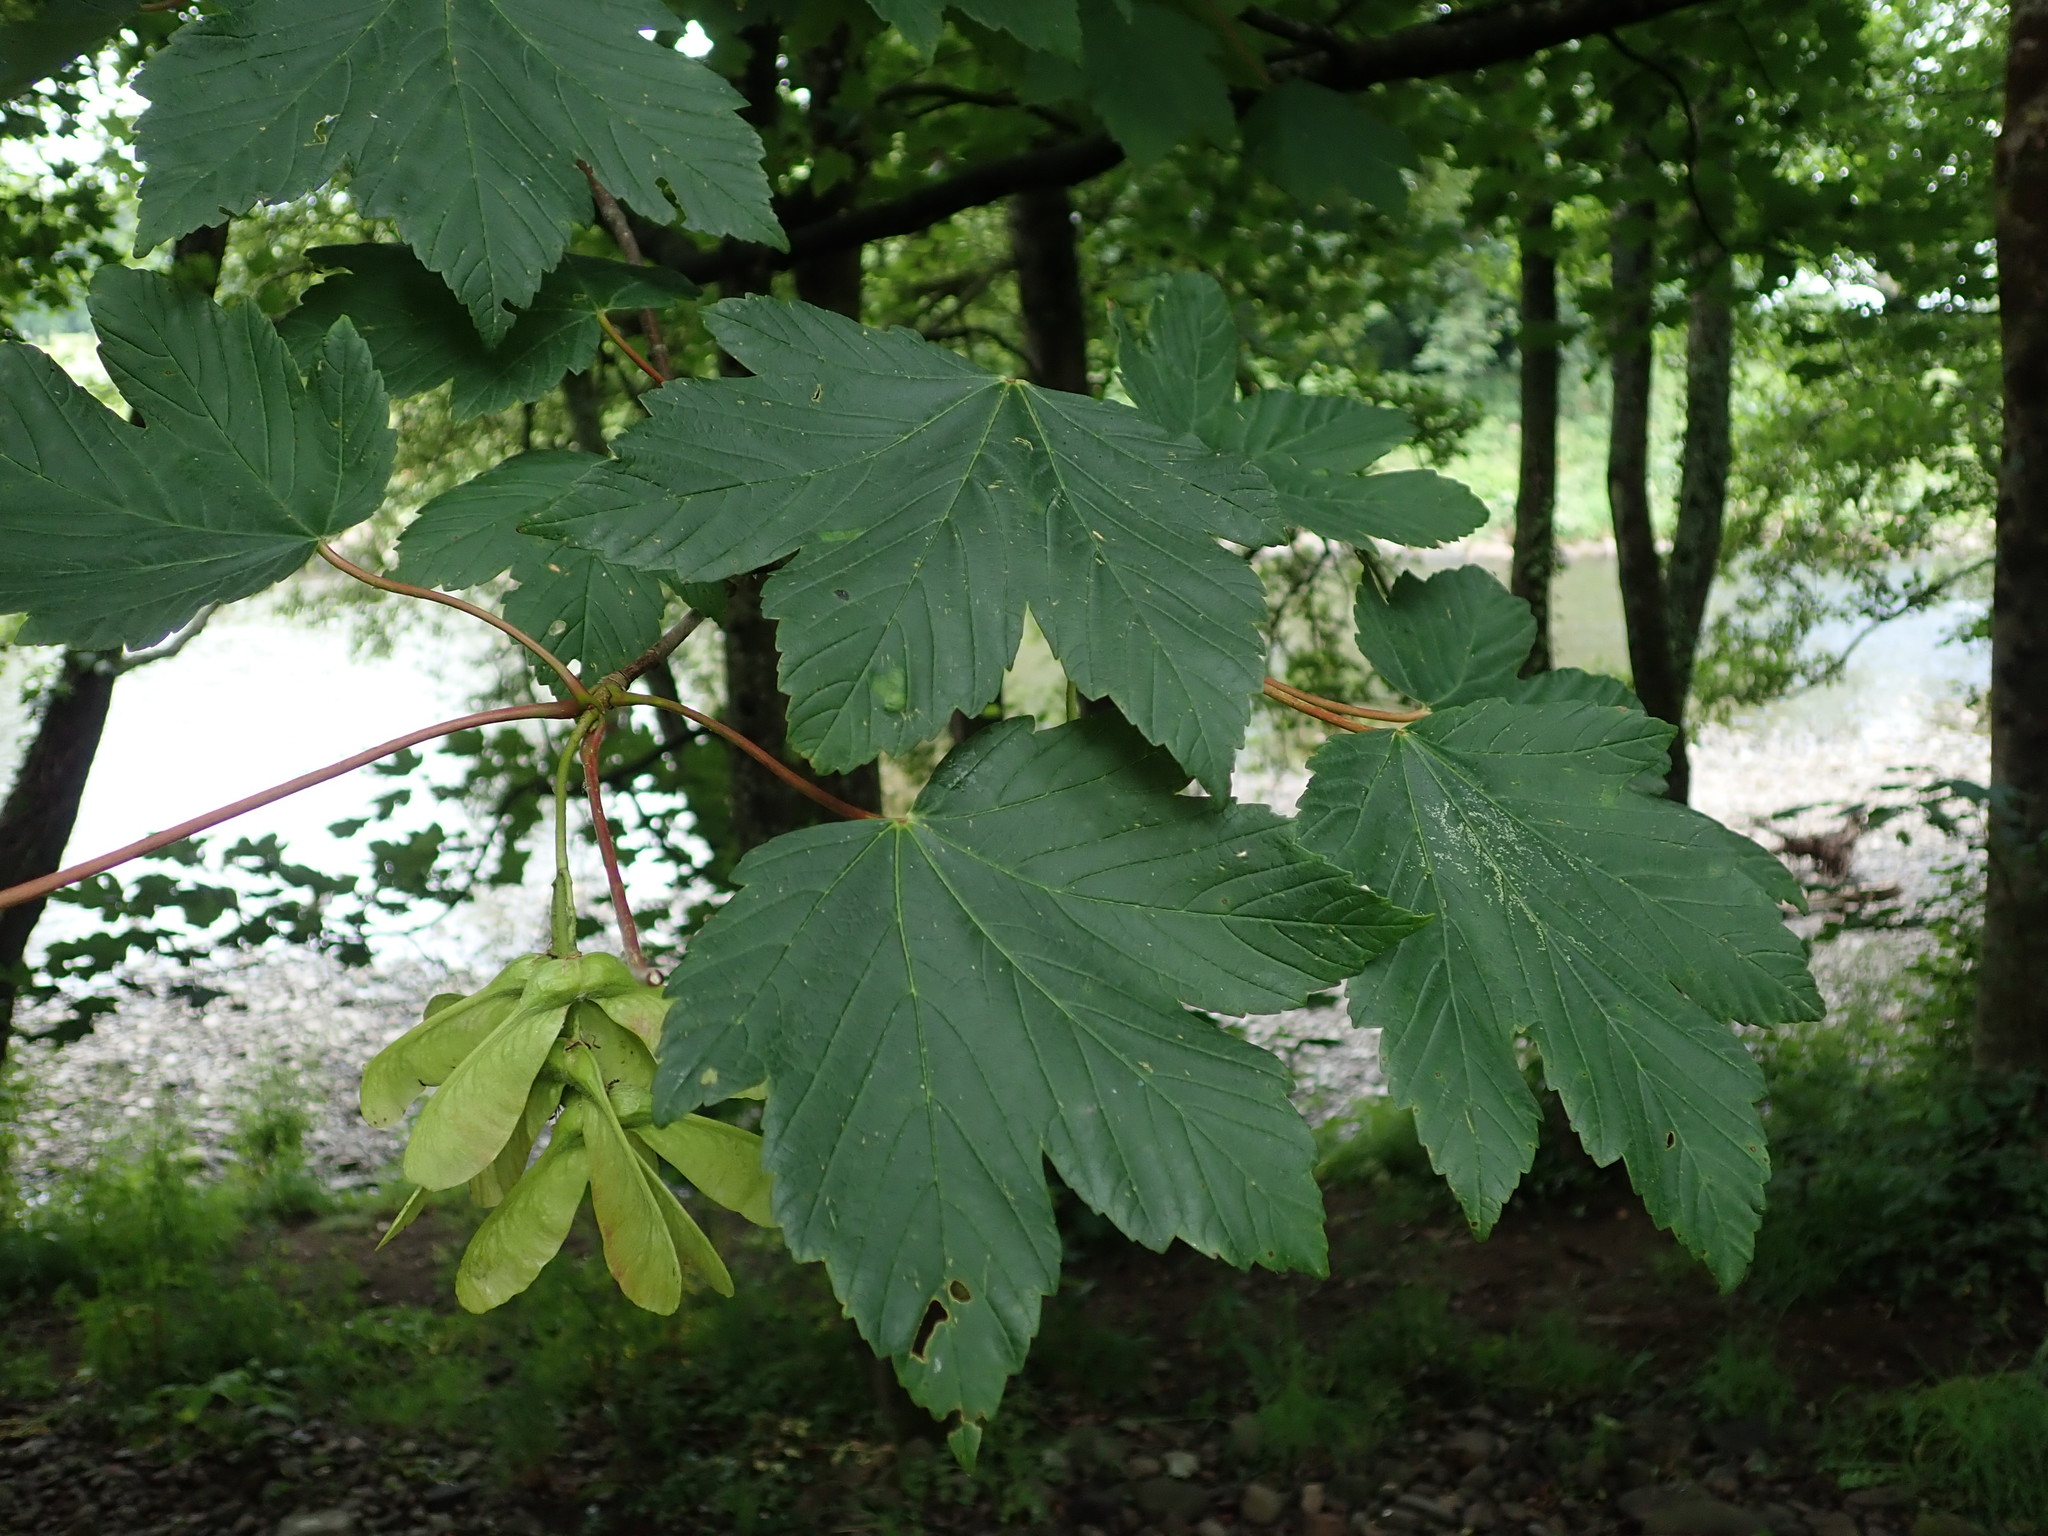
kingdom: Plantae
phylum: Tracheophyta
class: Magnoliopsida
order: Sapindales
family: Sapindaceae
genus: Acer
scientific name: Acer pseudoplatanus
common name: Sycamore
